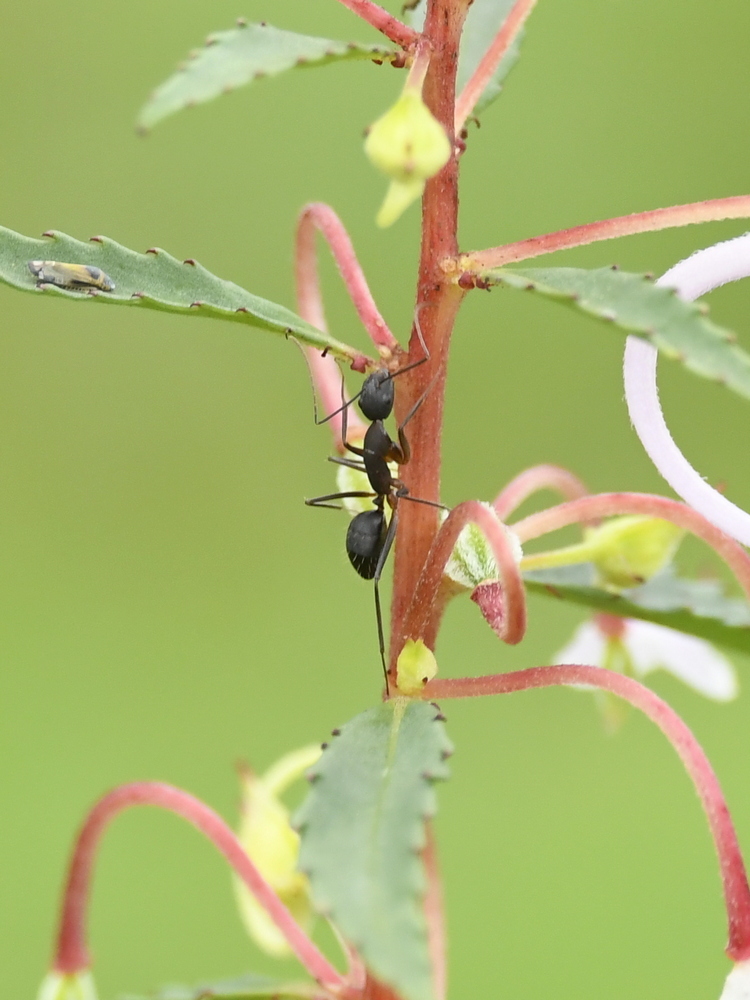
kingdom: Animalia
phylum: Arthropoda
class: Insecta
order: Hymenoptera
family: Formicidae
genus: Camponotus
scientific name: Camponotus compressus
